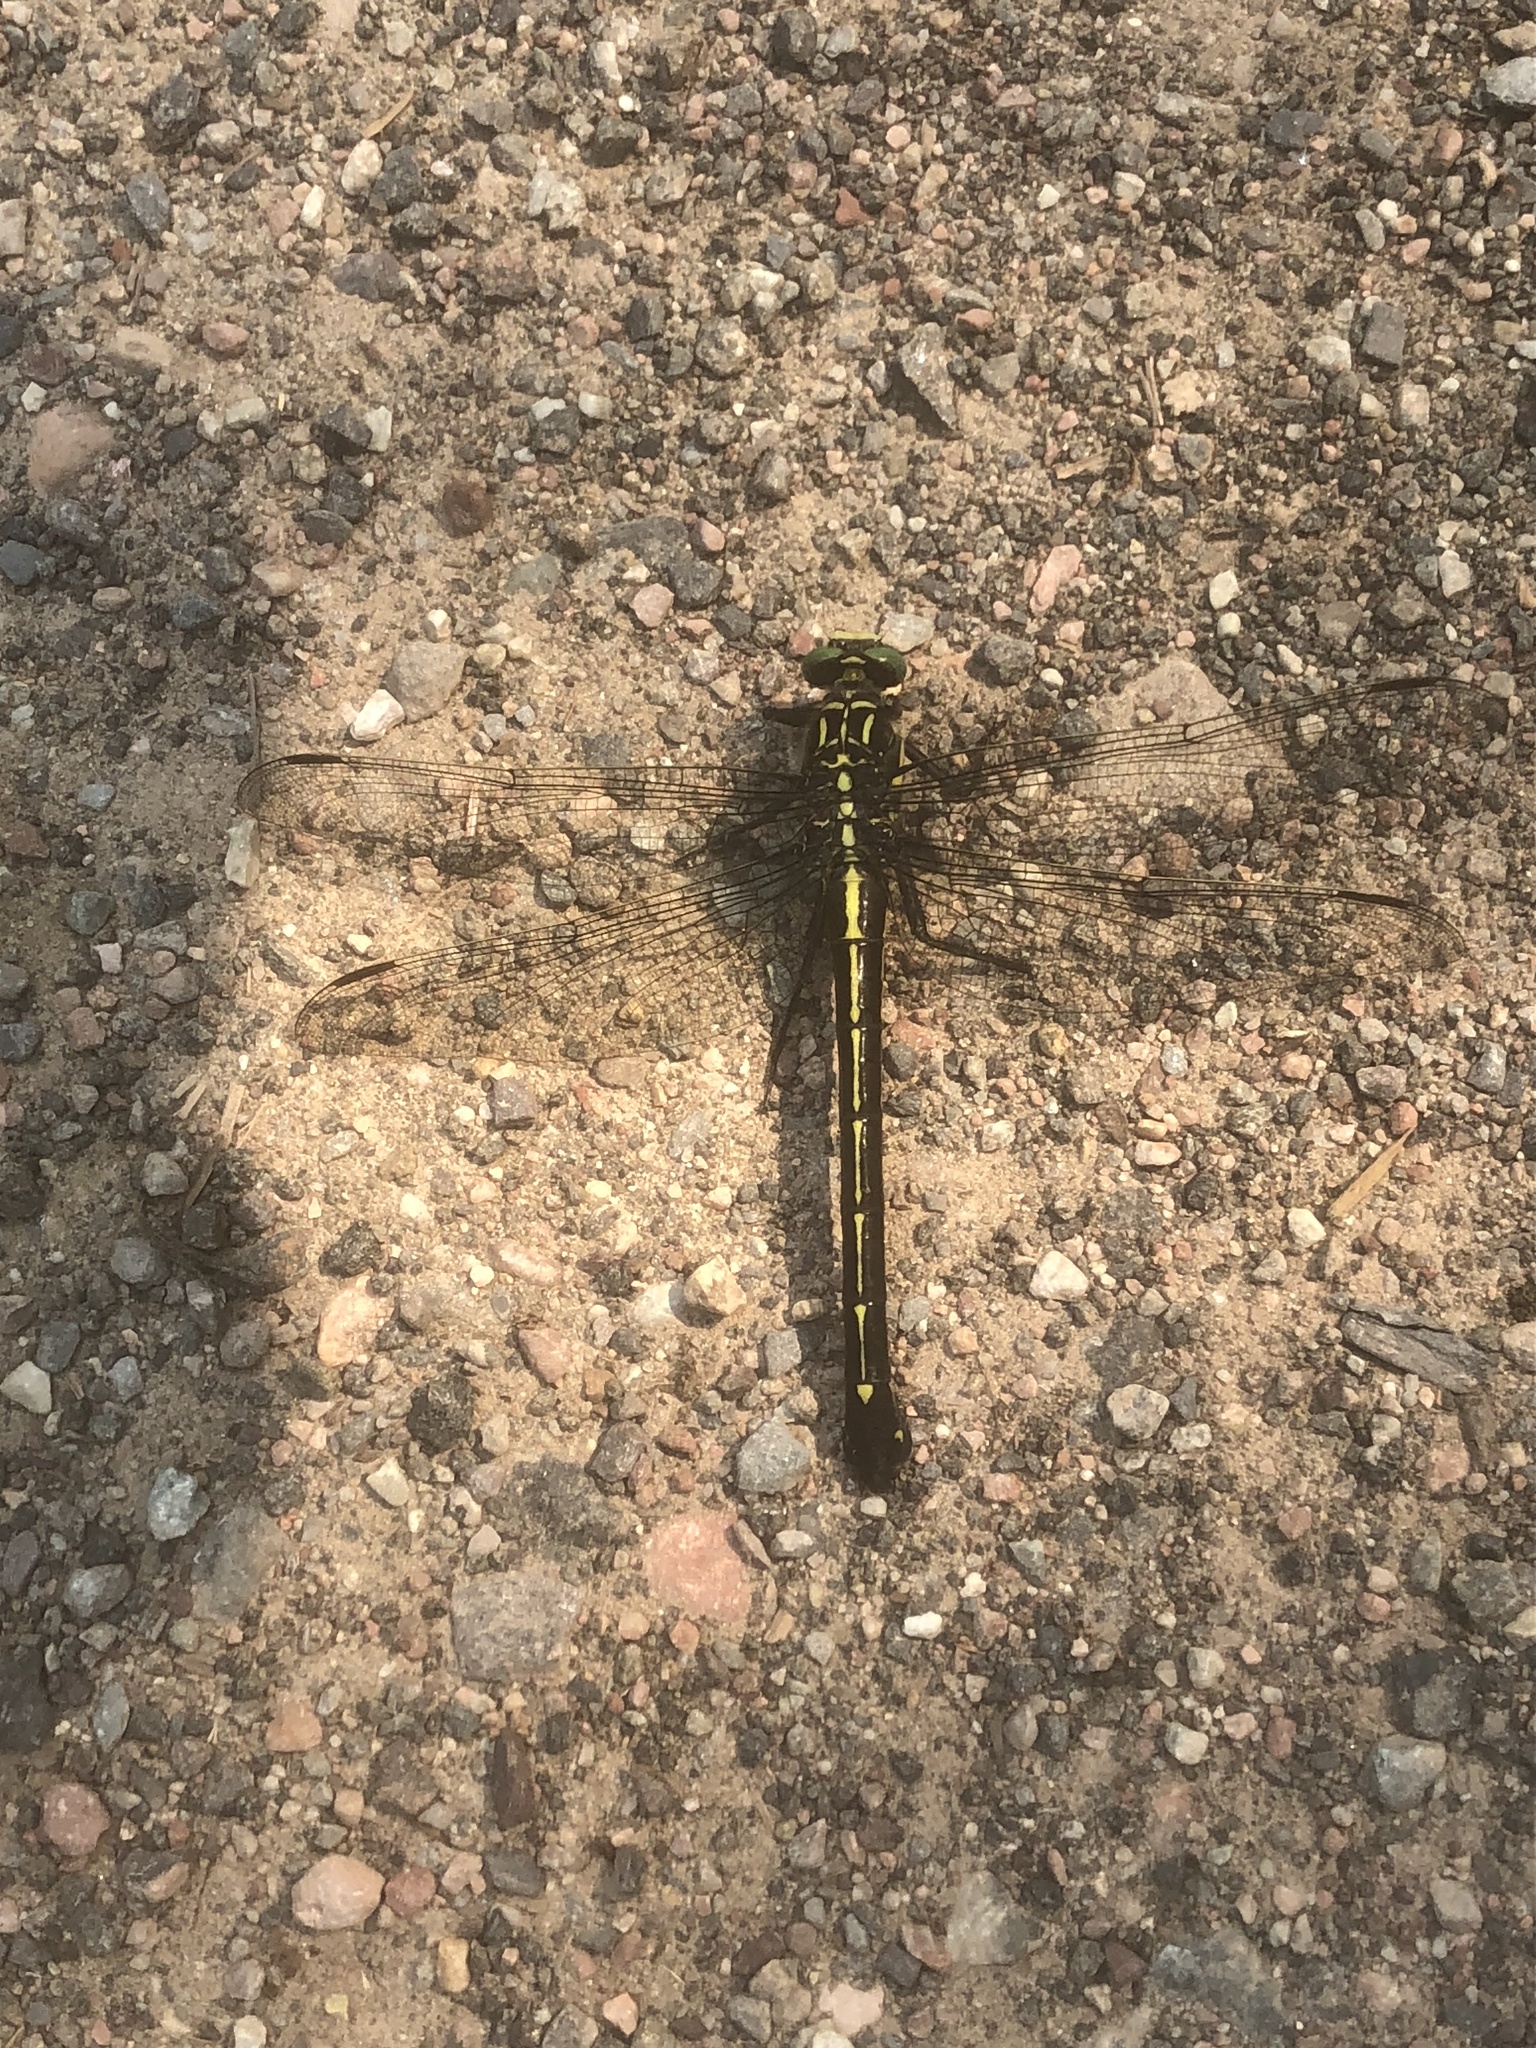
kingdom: Animalia
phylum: Arthropoda
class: Insecta
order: Odonata
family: Gomphidae
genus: Hagenius
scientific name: Hagenius brevistylus
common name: Dragonhunter
